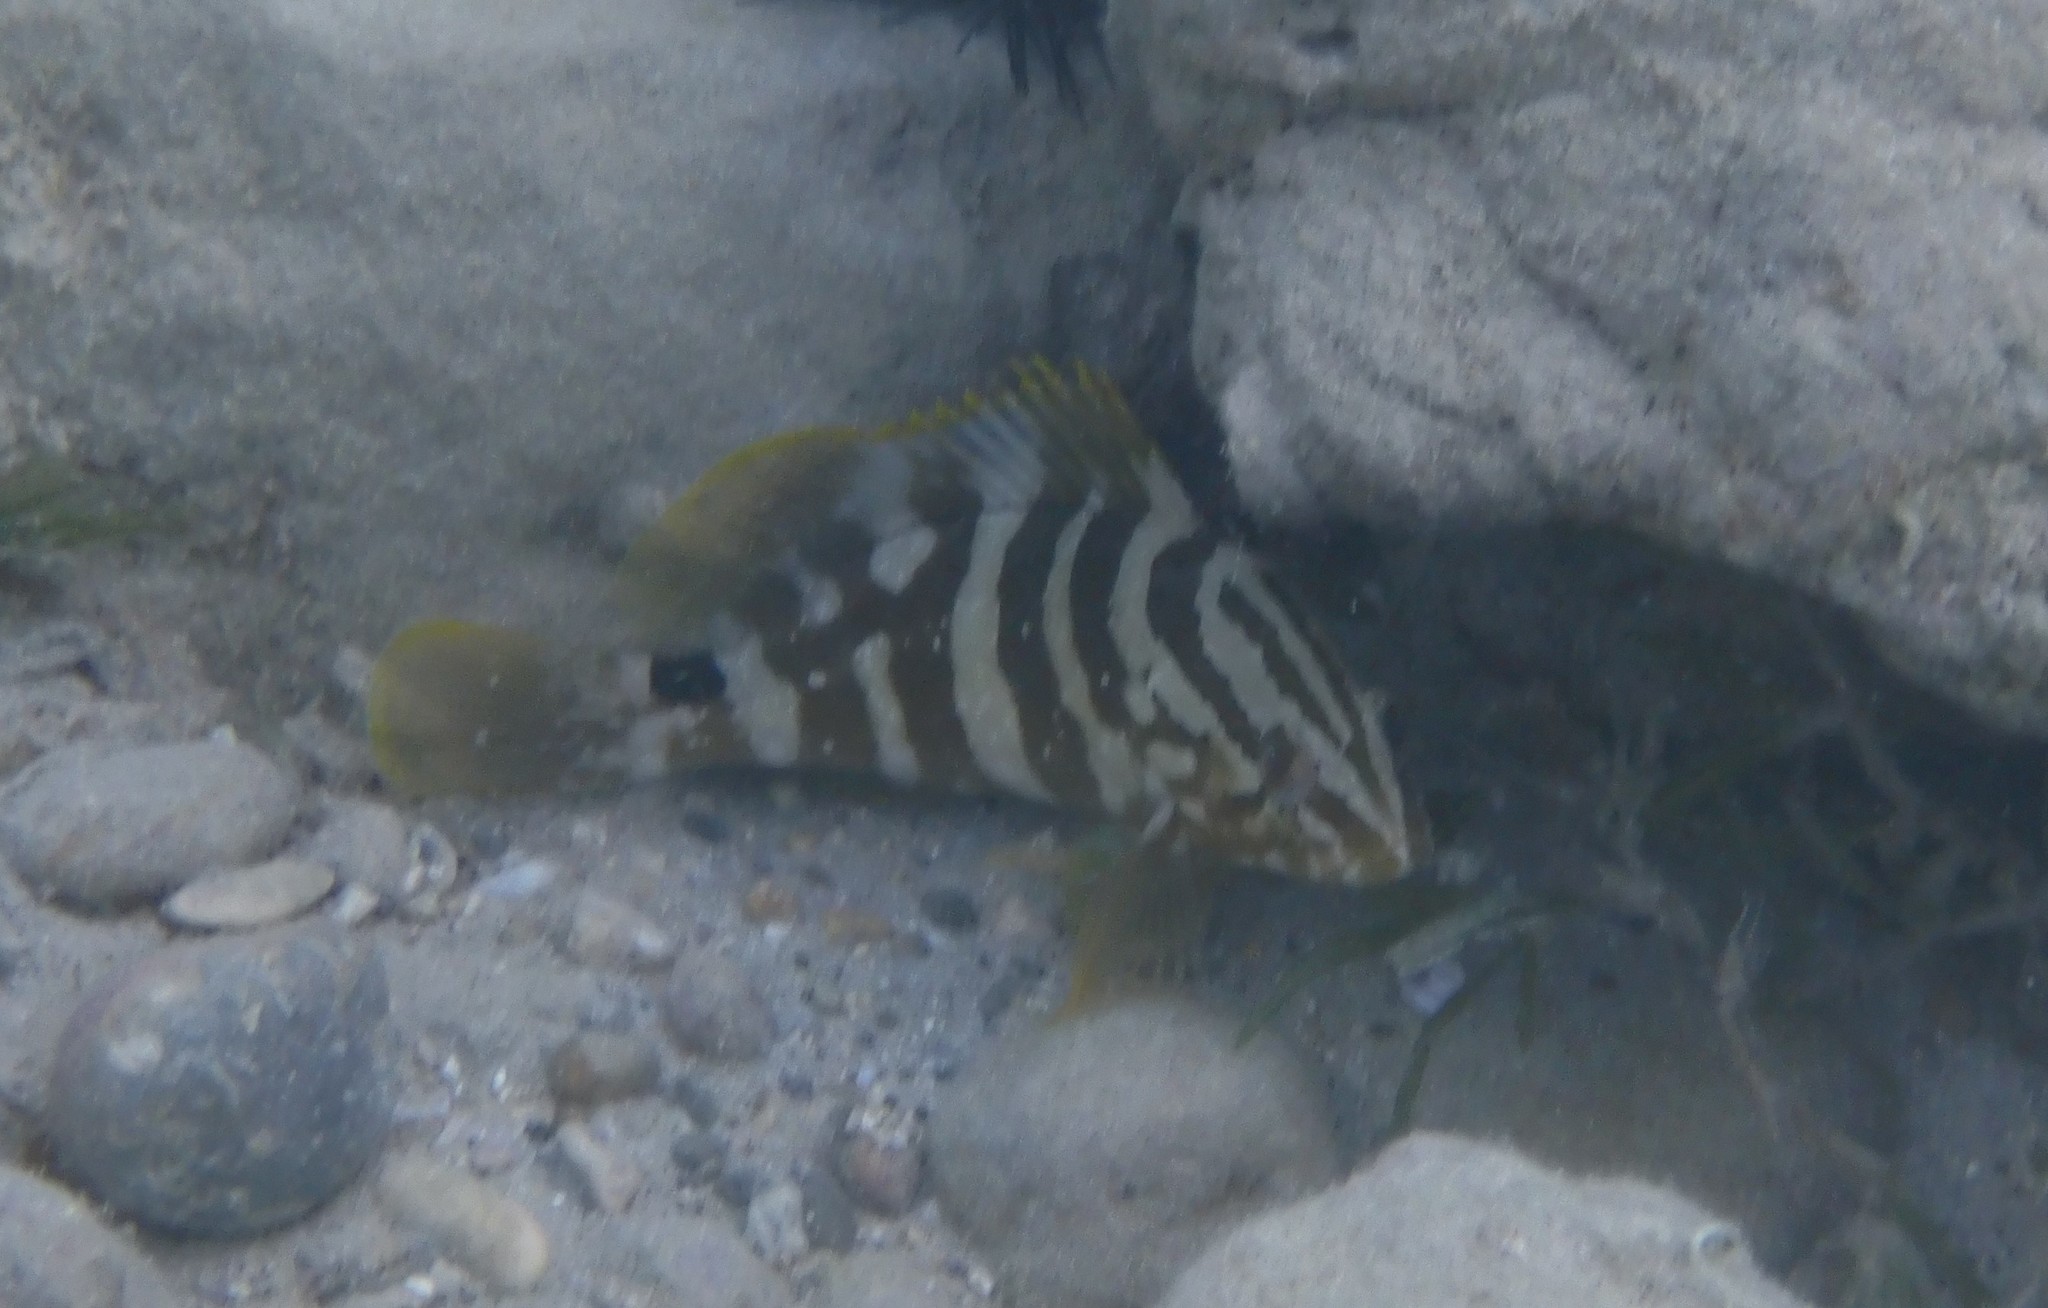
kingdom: Animalia
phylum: Chordata
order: Perciformes
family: Serranidae
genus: Epinephelus
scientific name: Epinephelus striatus
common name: Nassau grouper
